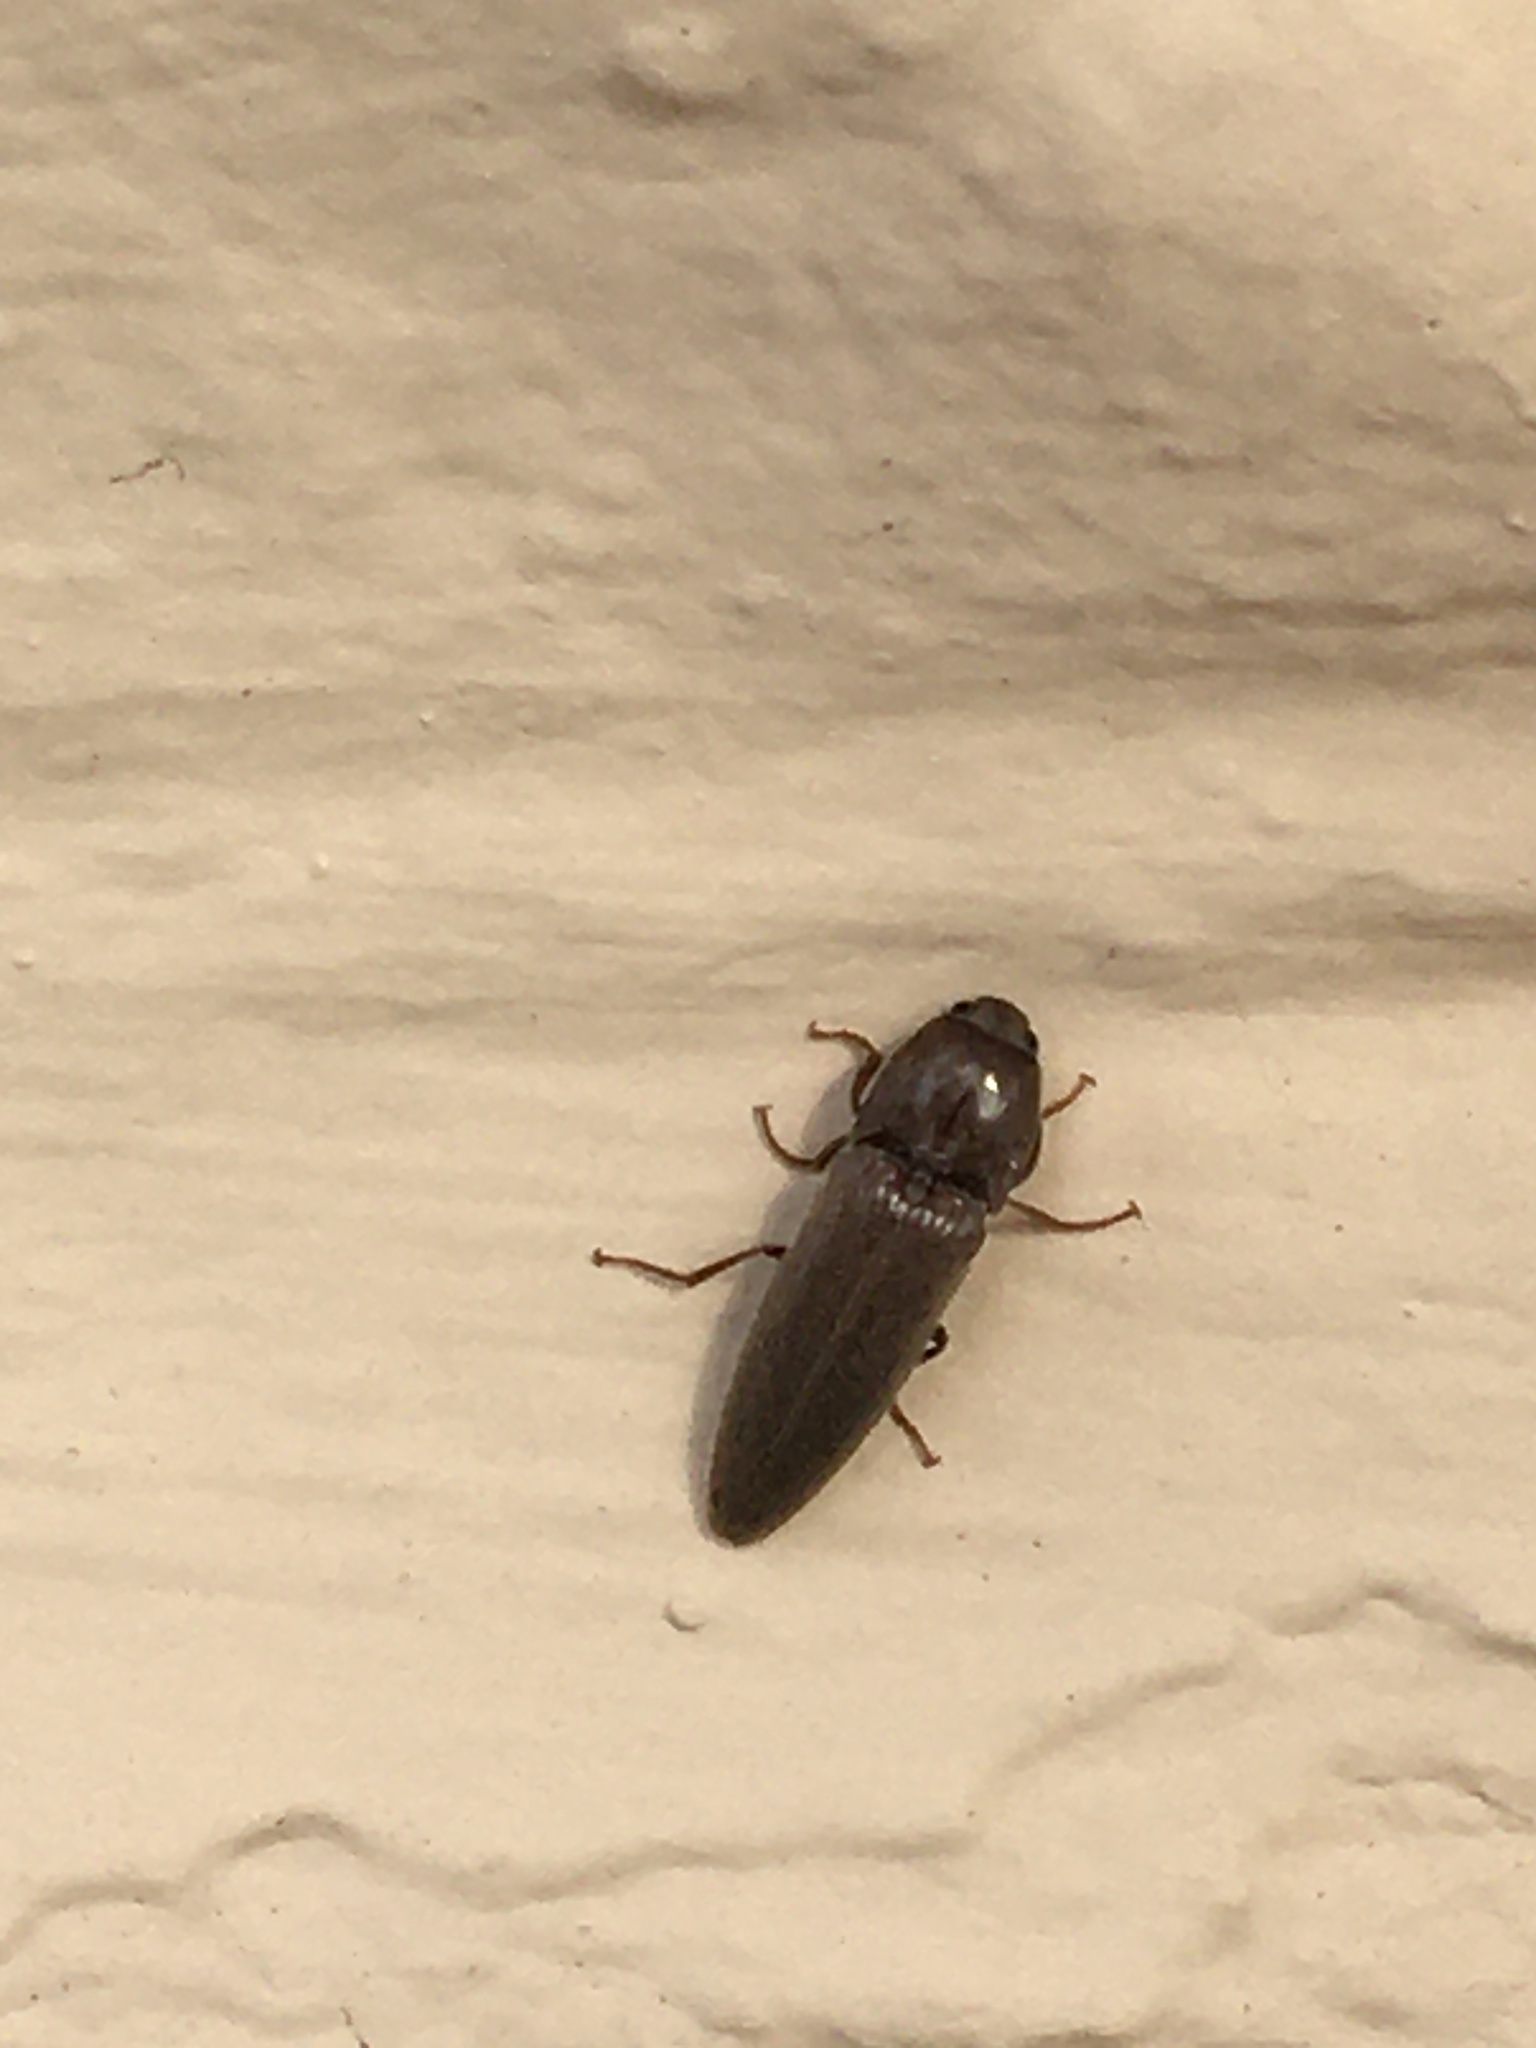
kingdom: Animalia
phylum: Arthropoda
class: Insecta
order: Coleoptera
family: Elateridae
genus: Melanotus
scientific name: Melanotus
